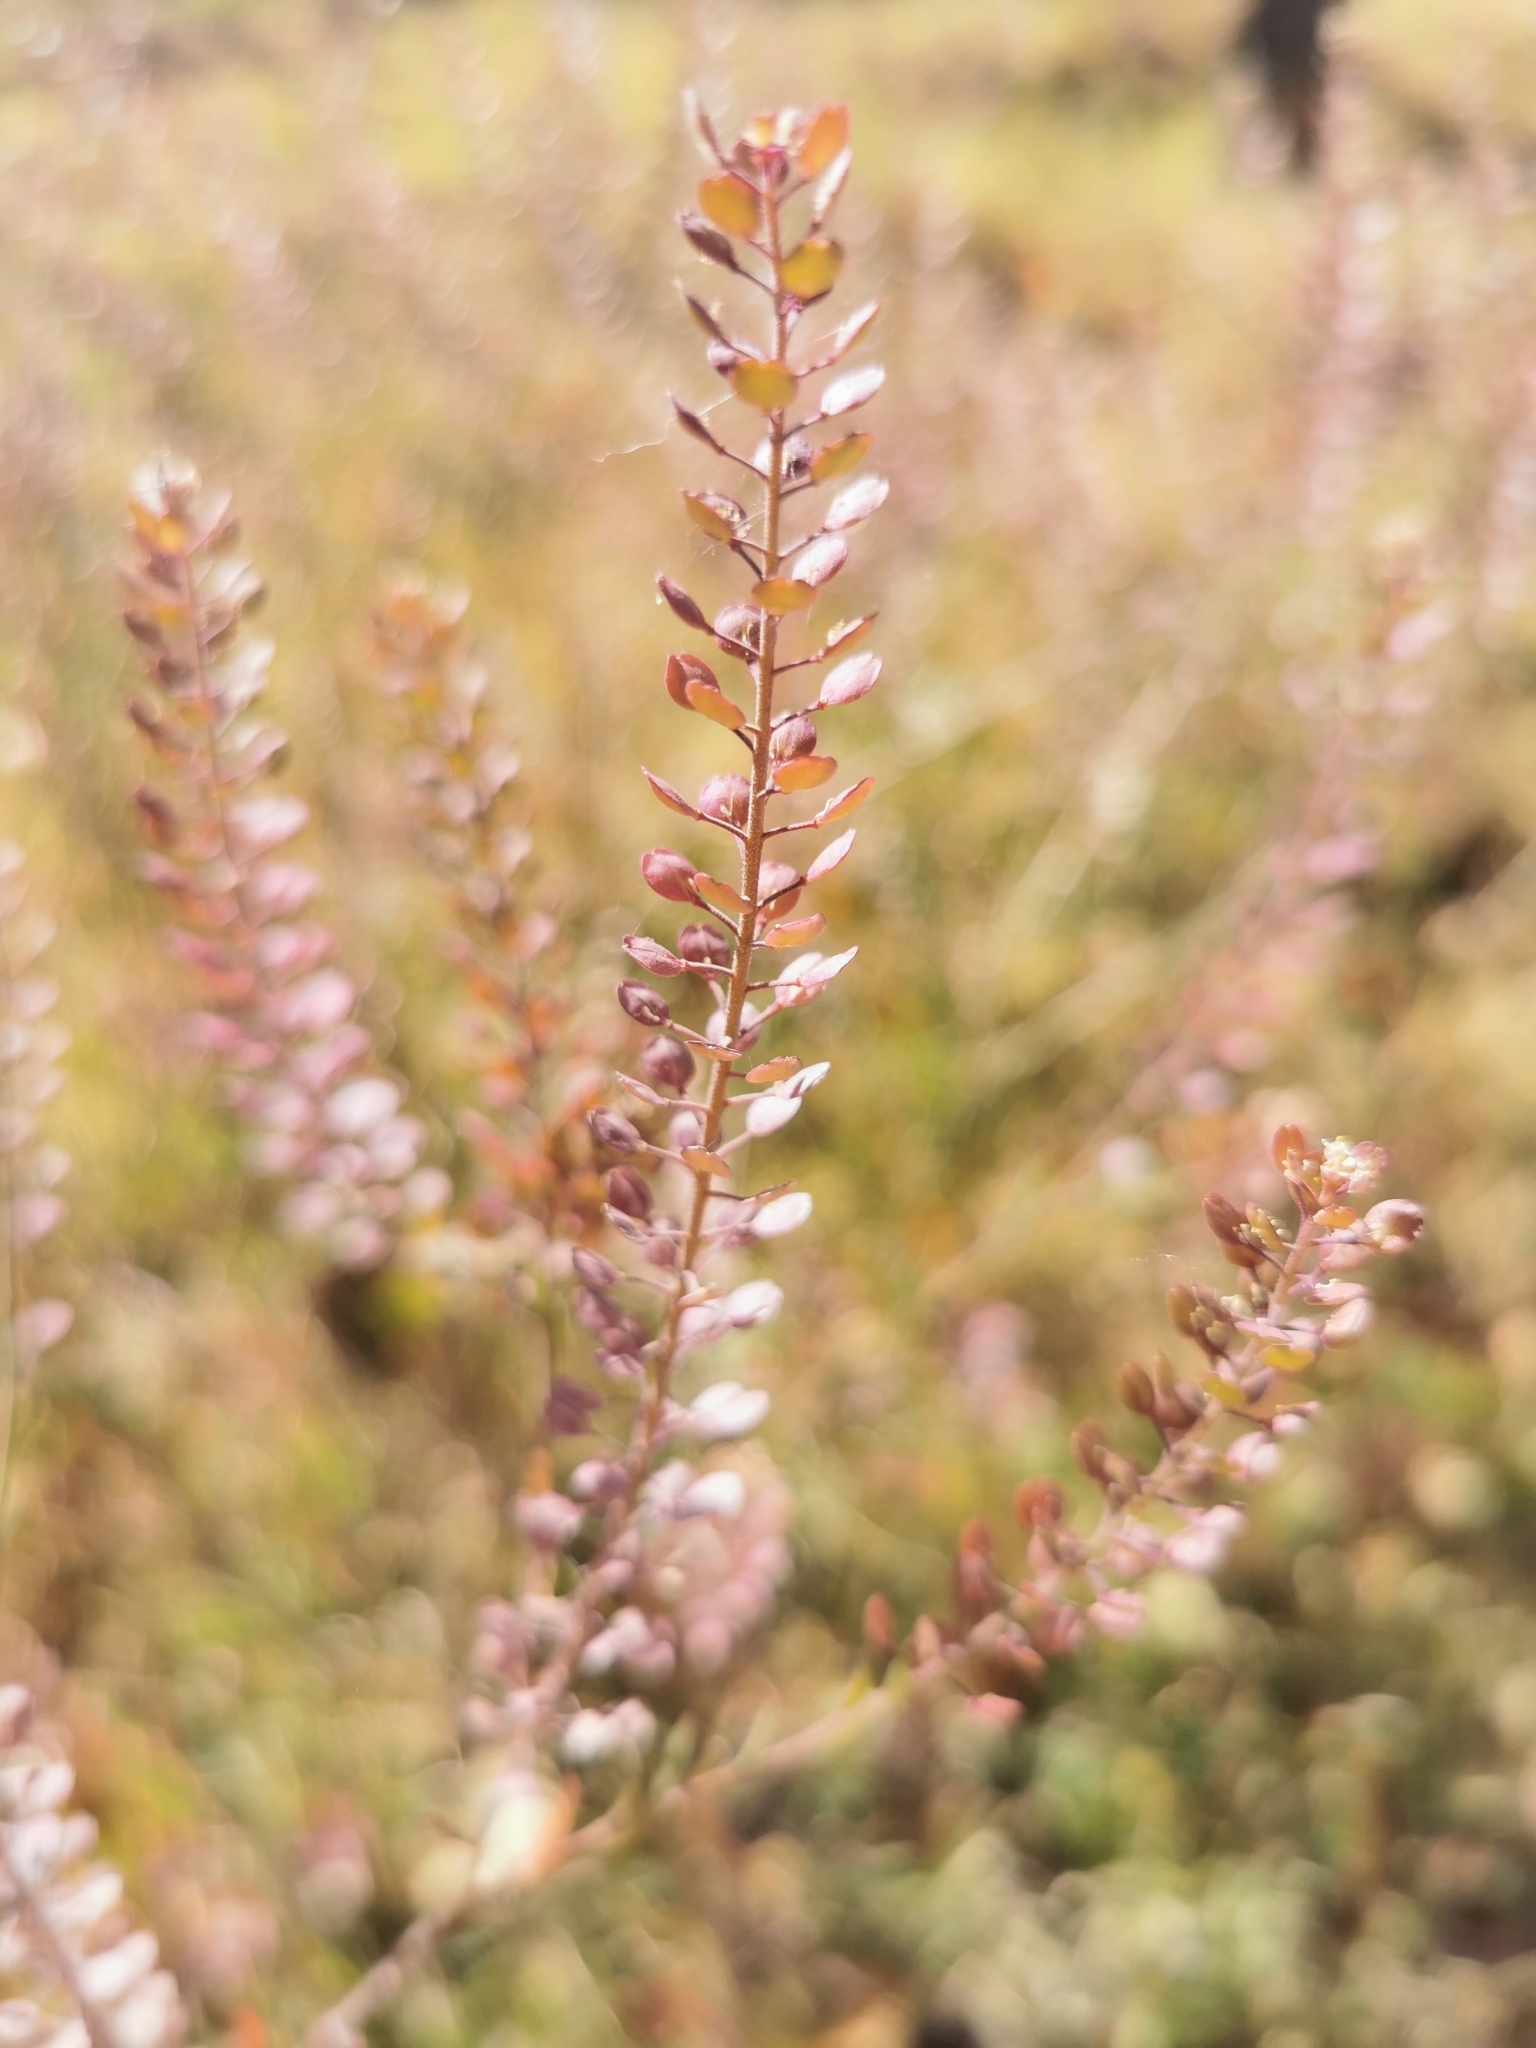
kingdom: Plantae
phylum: Tracheophyta
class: Magnoliopsida
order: Brassicales
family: Brassicaceae
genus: Lepidium
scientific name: Lepidium virginicum
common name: Least pepperwort
